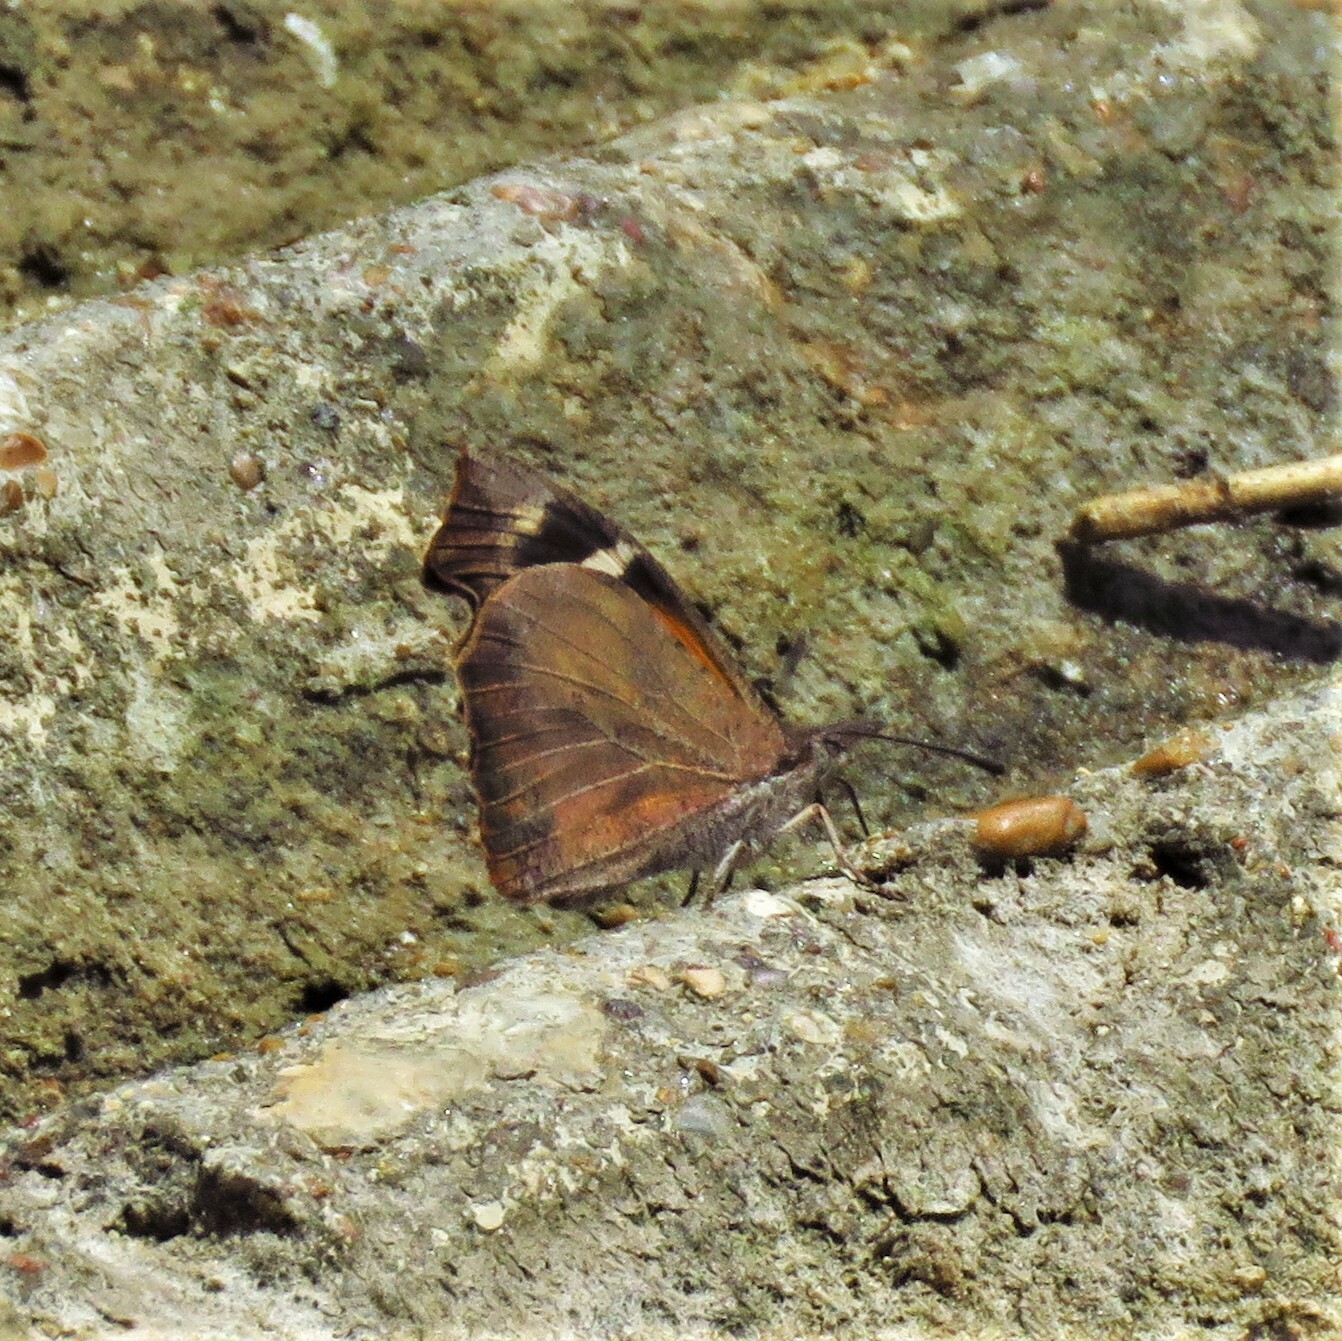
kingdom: Animalia
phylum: Arthropoda
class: Insecta
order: Lepidoptera
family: Nymphalidae
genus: Libytheana
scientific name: Libytheana carinenta
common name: American snout
